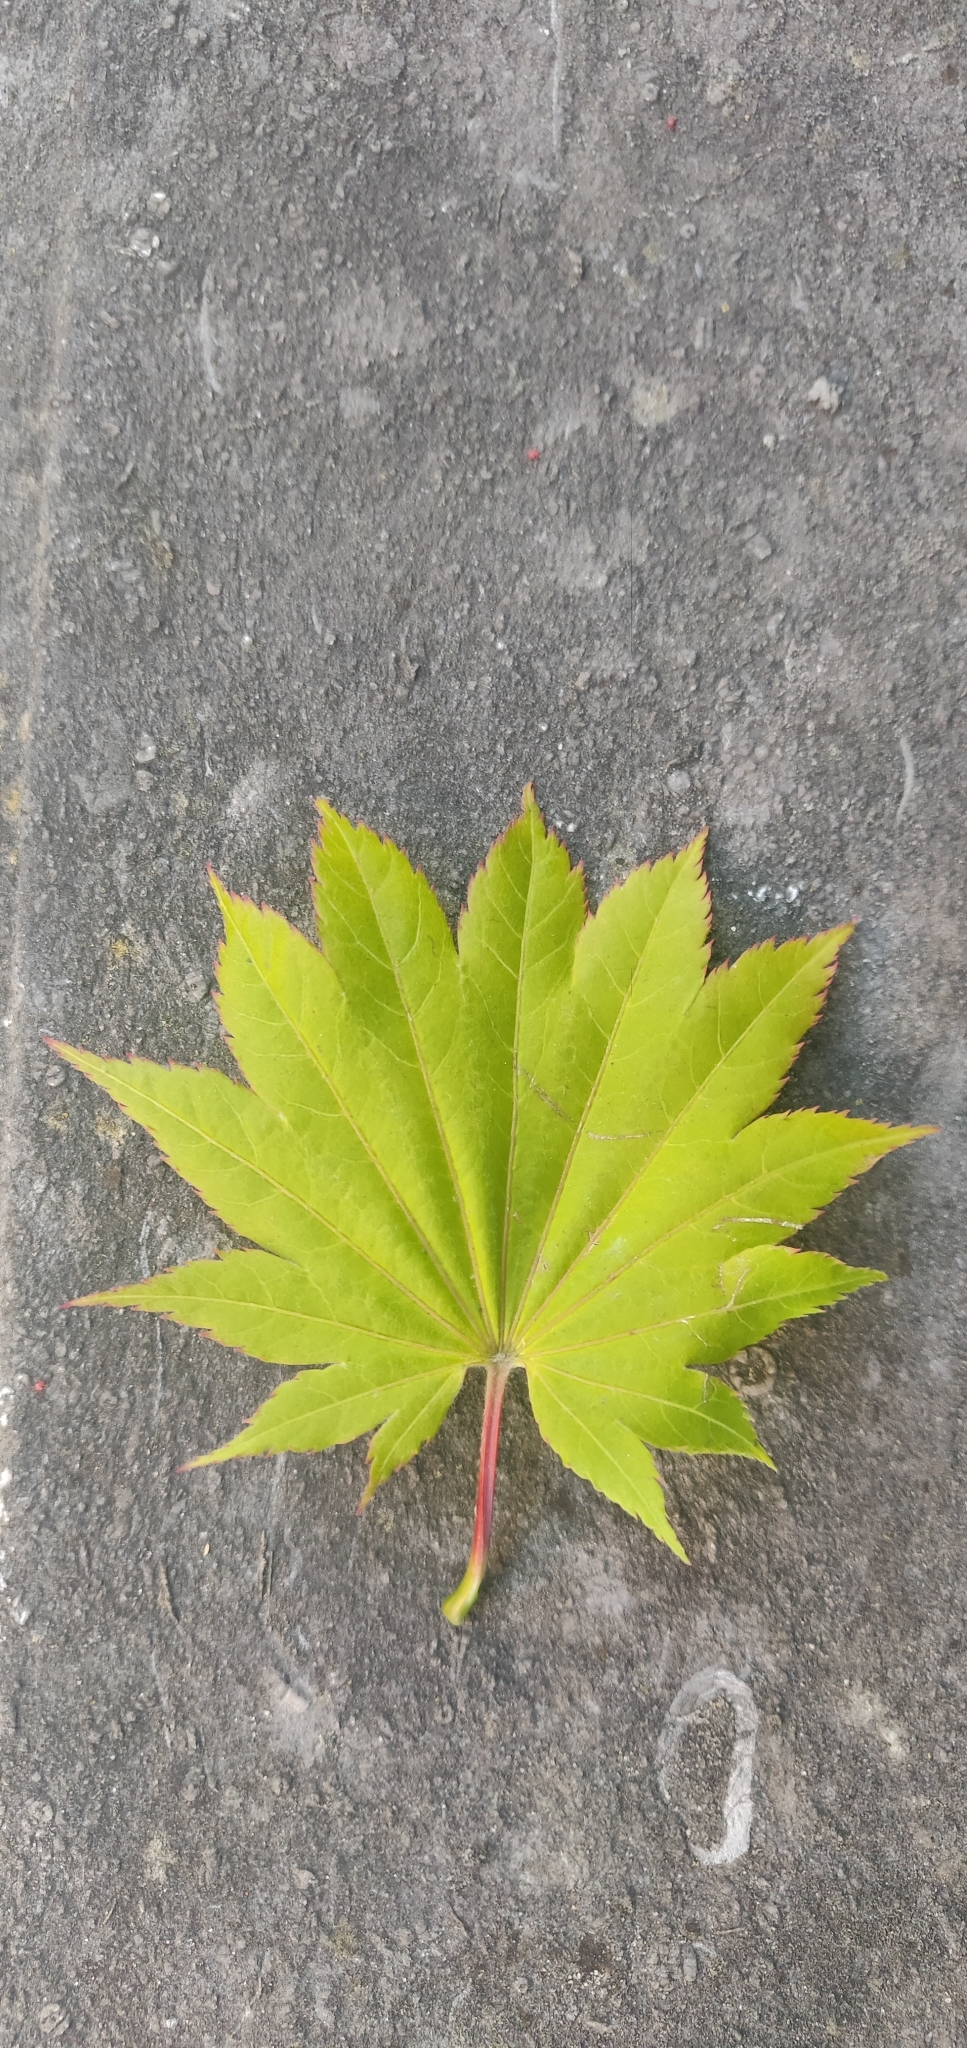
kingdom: Plantae
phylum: Tracheophyta
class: Magnoliopsida
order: Sapindales
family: Sapindaceae
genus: Acer
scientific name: Acer pseudosieboldianum
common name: Korean maple
